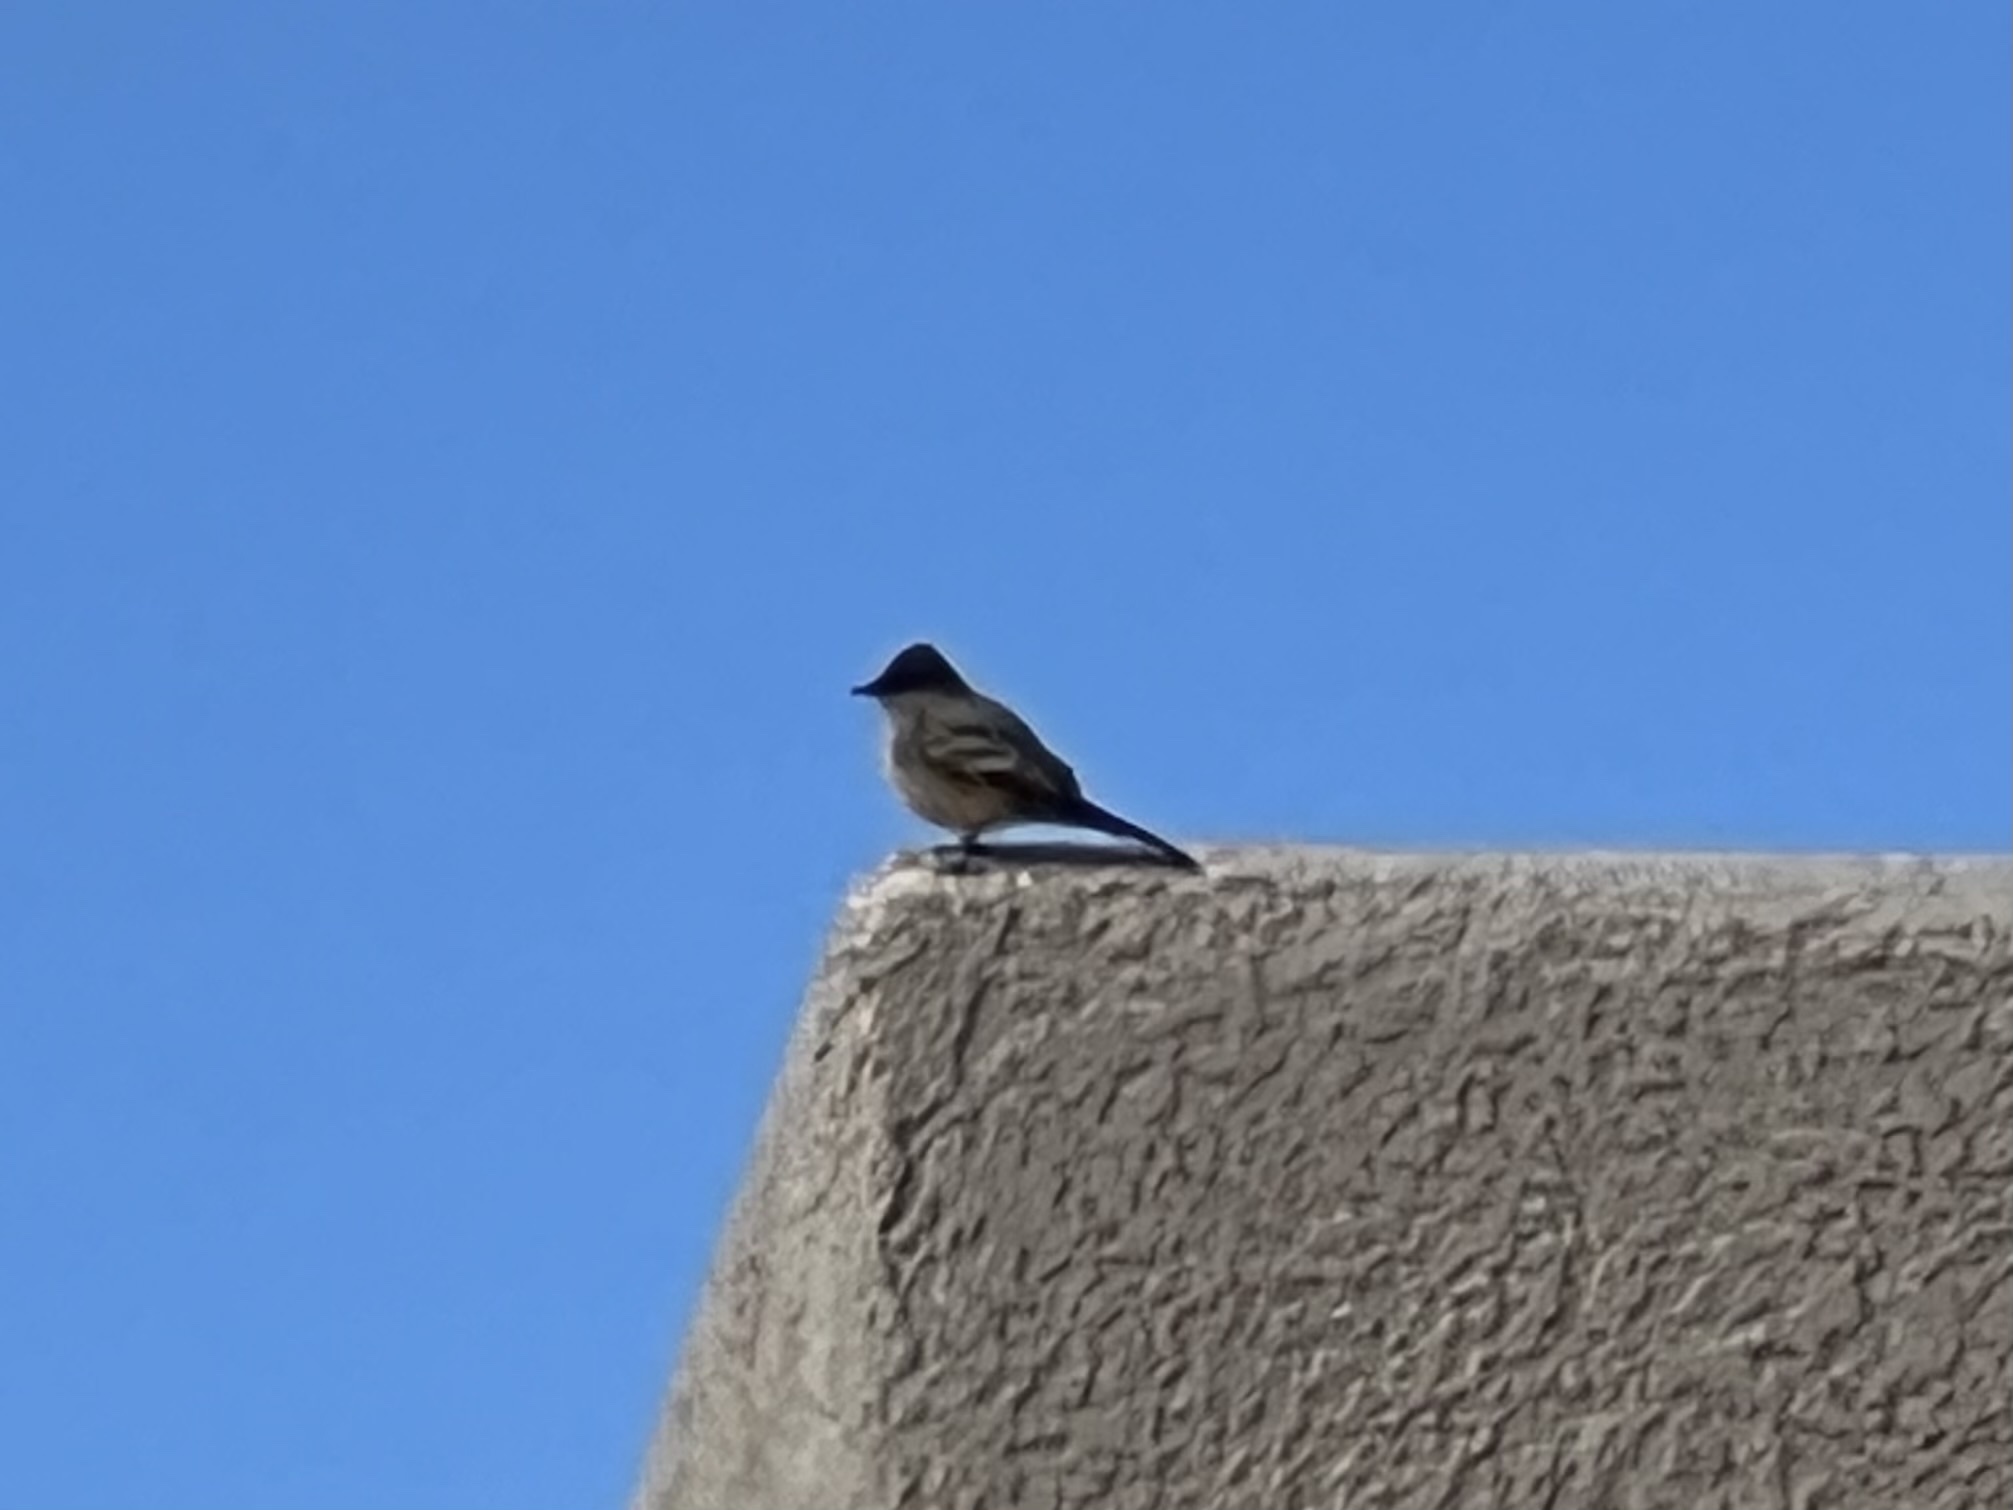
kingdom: Animalia
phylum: Chordata
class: Aves
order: Passeriformes
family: Tyrannidae
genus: Sayornis
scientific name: Sayornis saya
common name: Say's phoebe
